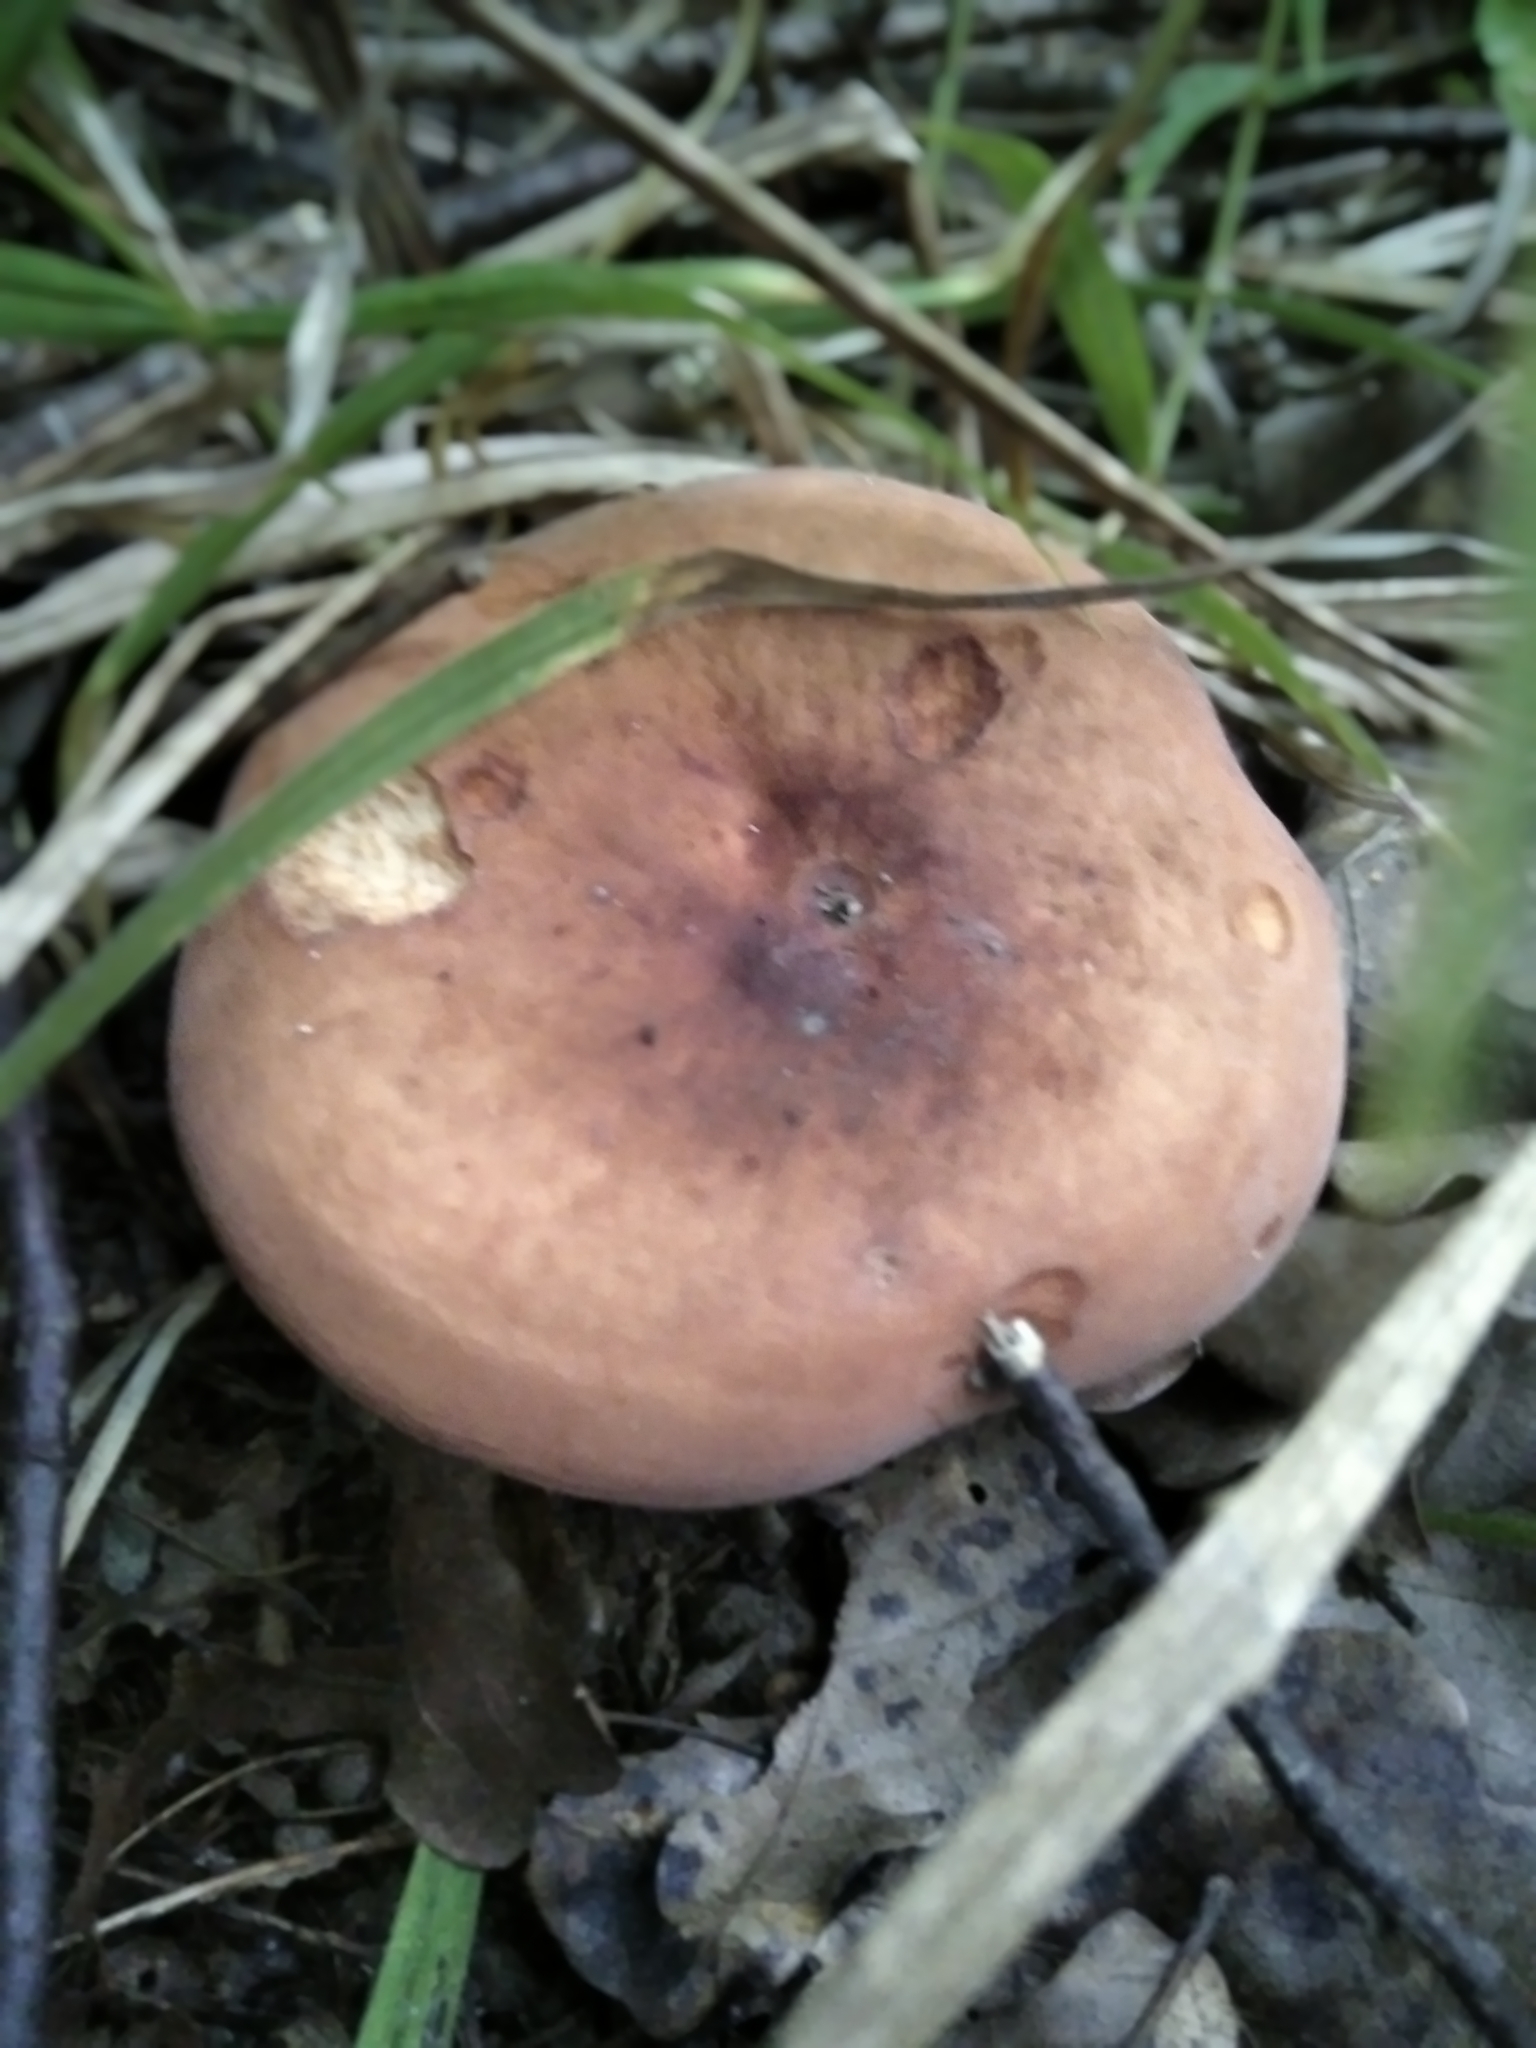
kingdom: Fungi
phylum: Basidiomycota
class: Agaricomycetes
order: Russulales
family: Russulaceae
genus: Lactifluus
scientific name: Lactifluus volemus
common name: Fishy milkcap
